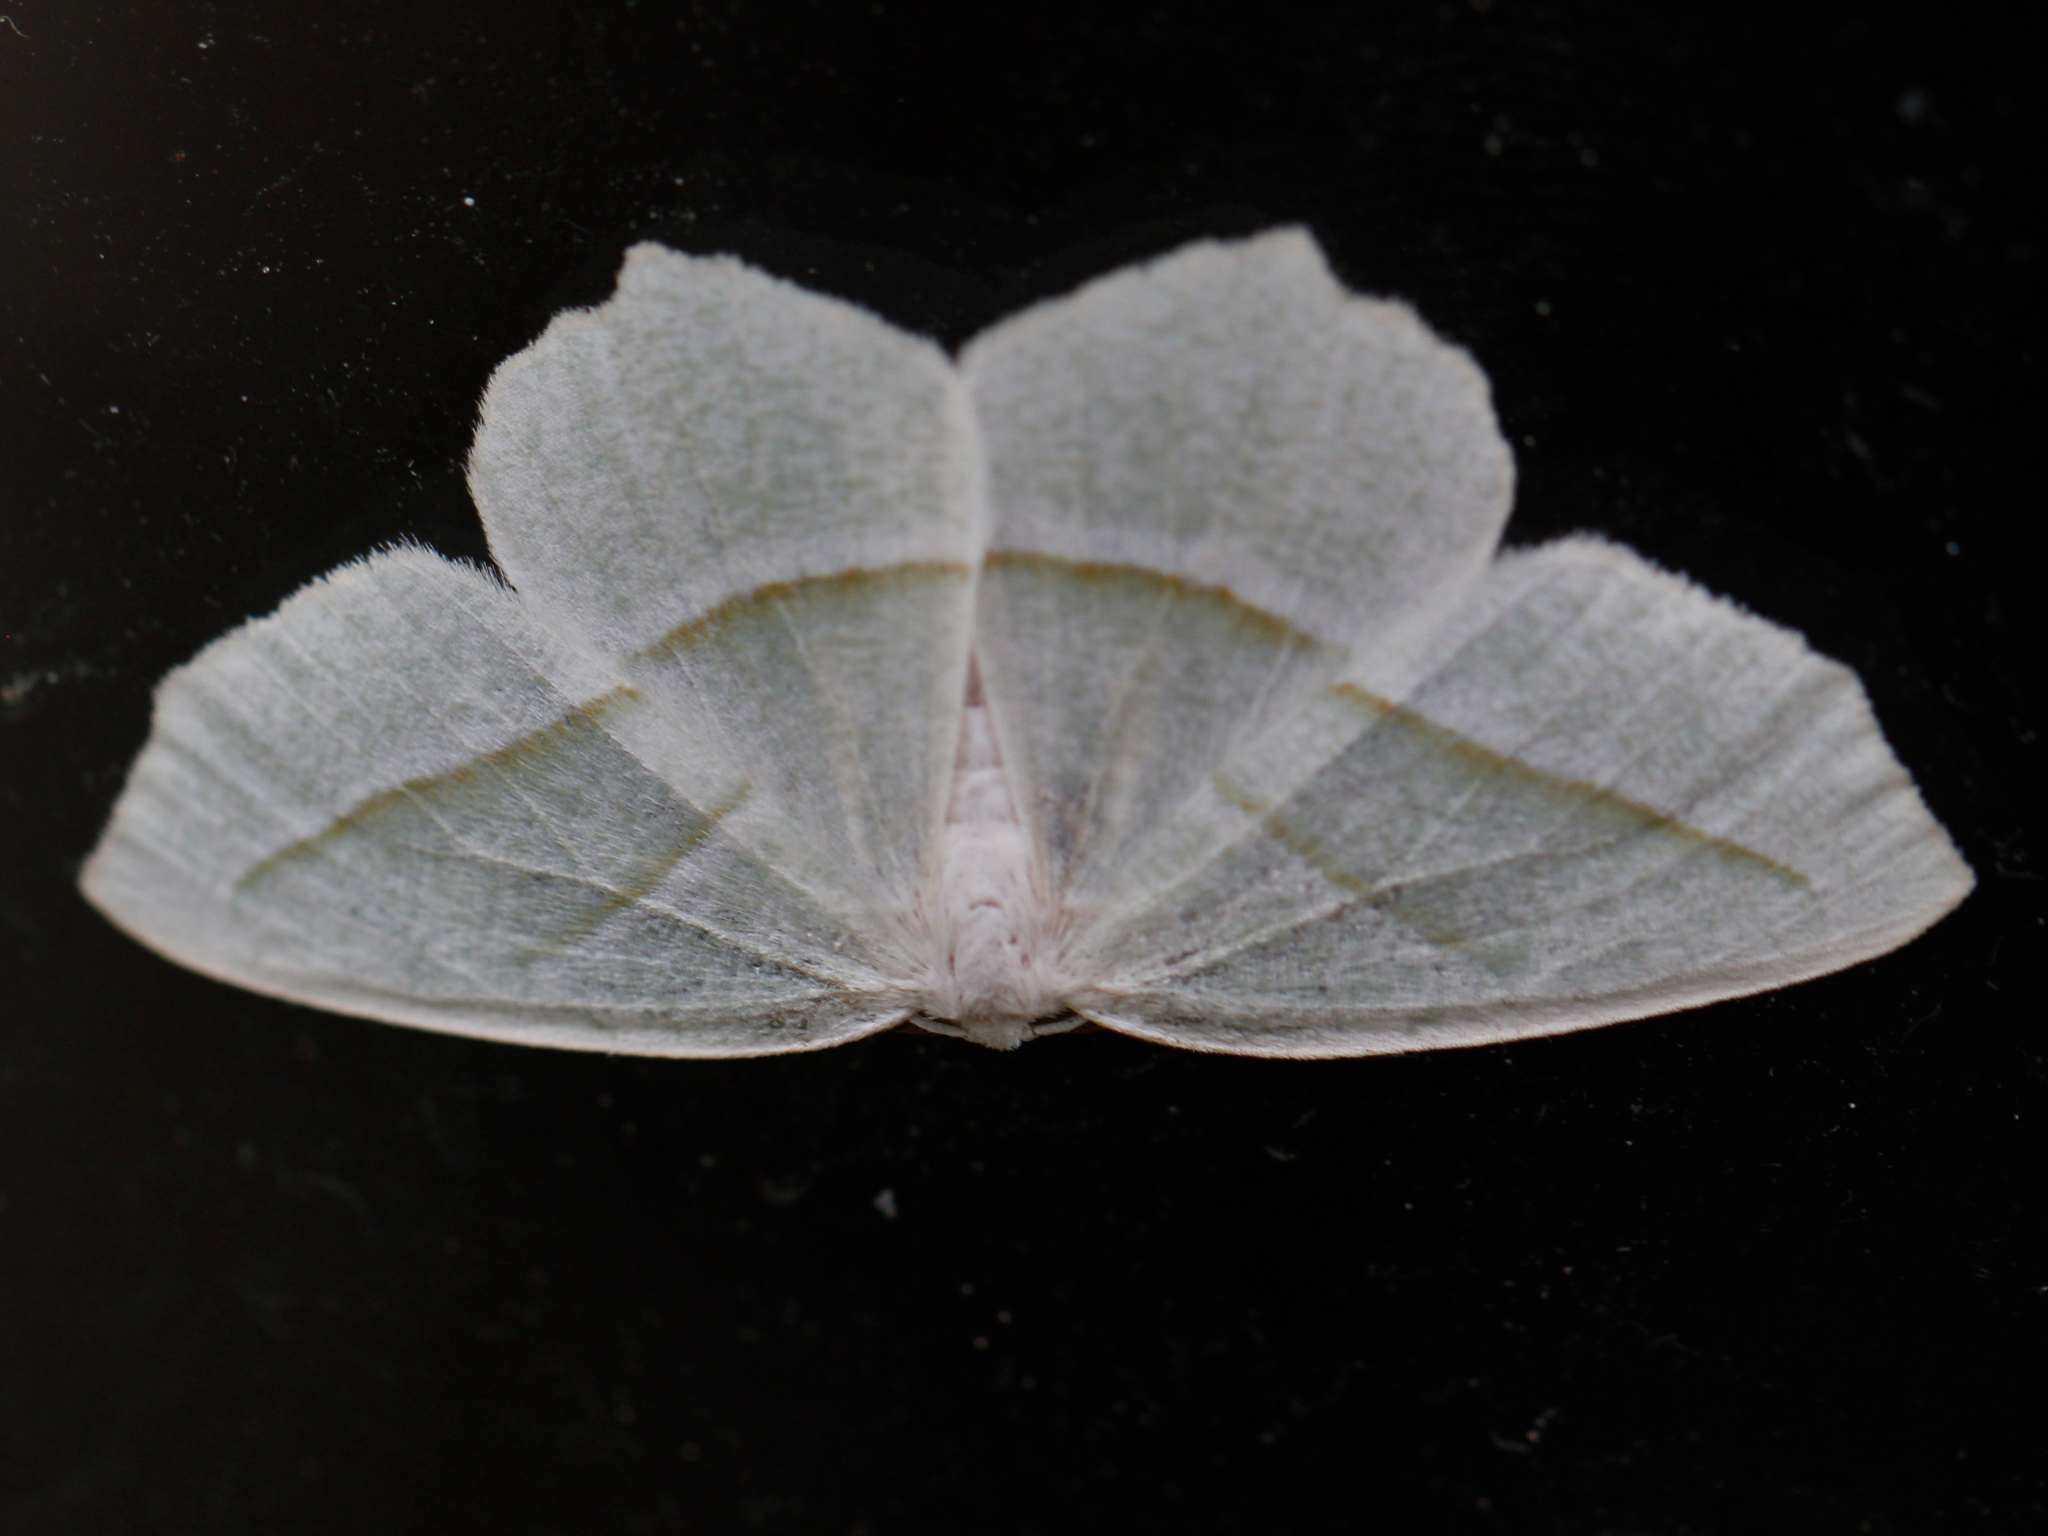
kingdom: Animalia
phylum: Arthropoda
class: Insecta
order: Lepidoptera
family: Geometridae
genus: Campaea
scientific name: Campaea perlata
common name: Fringed looper
